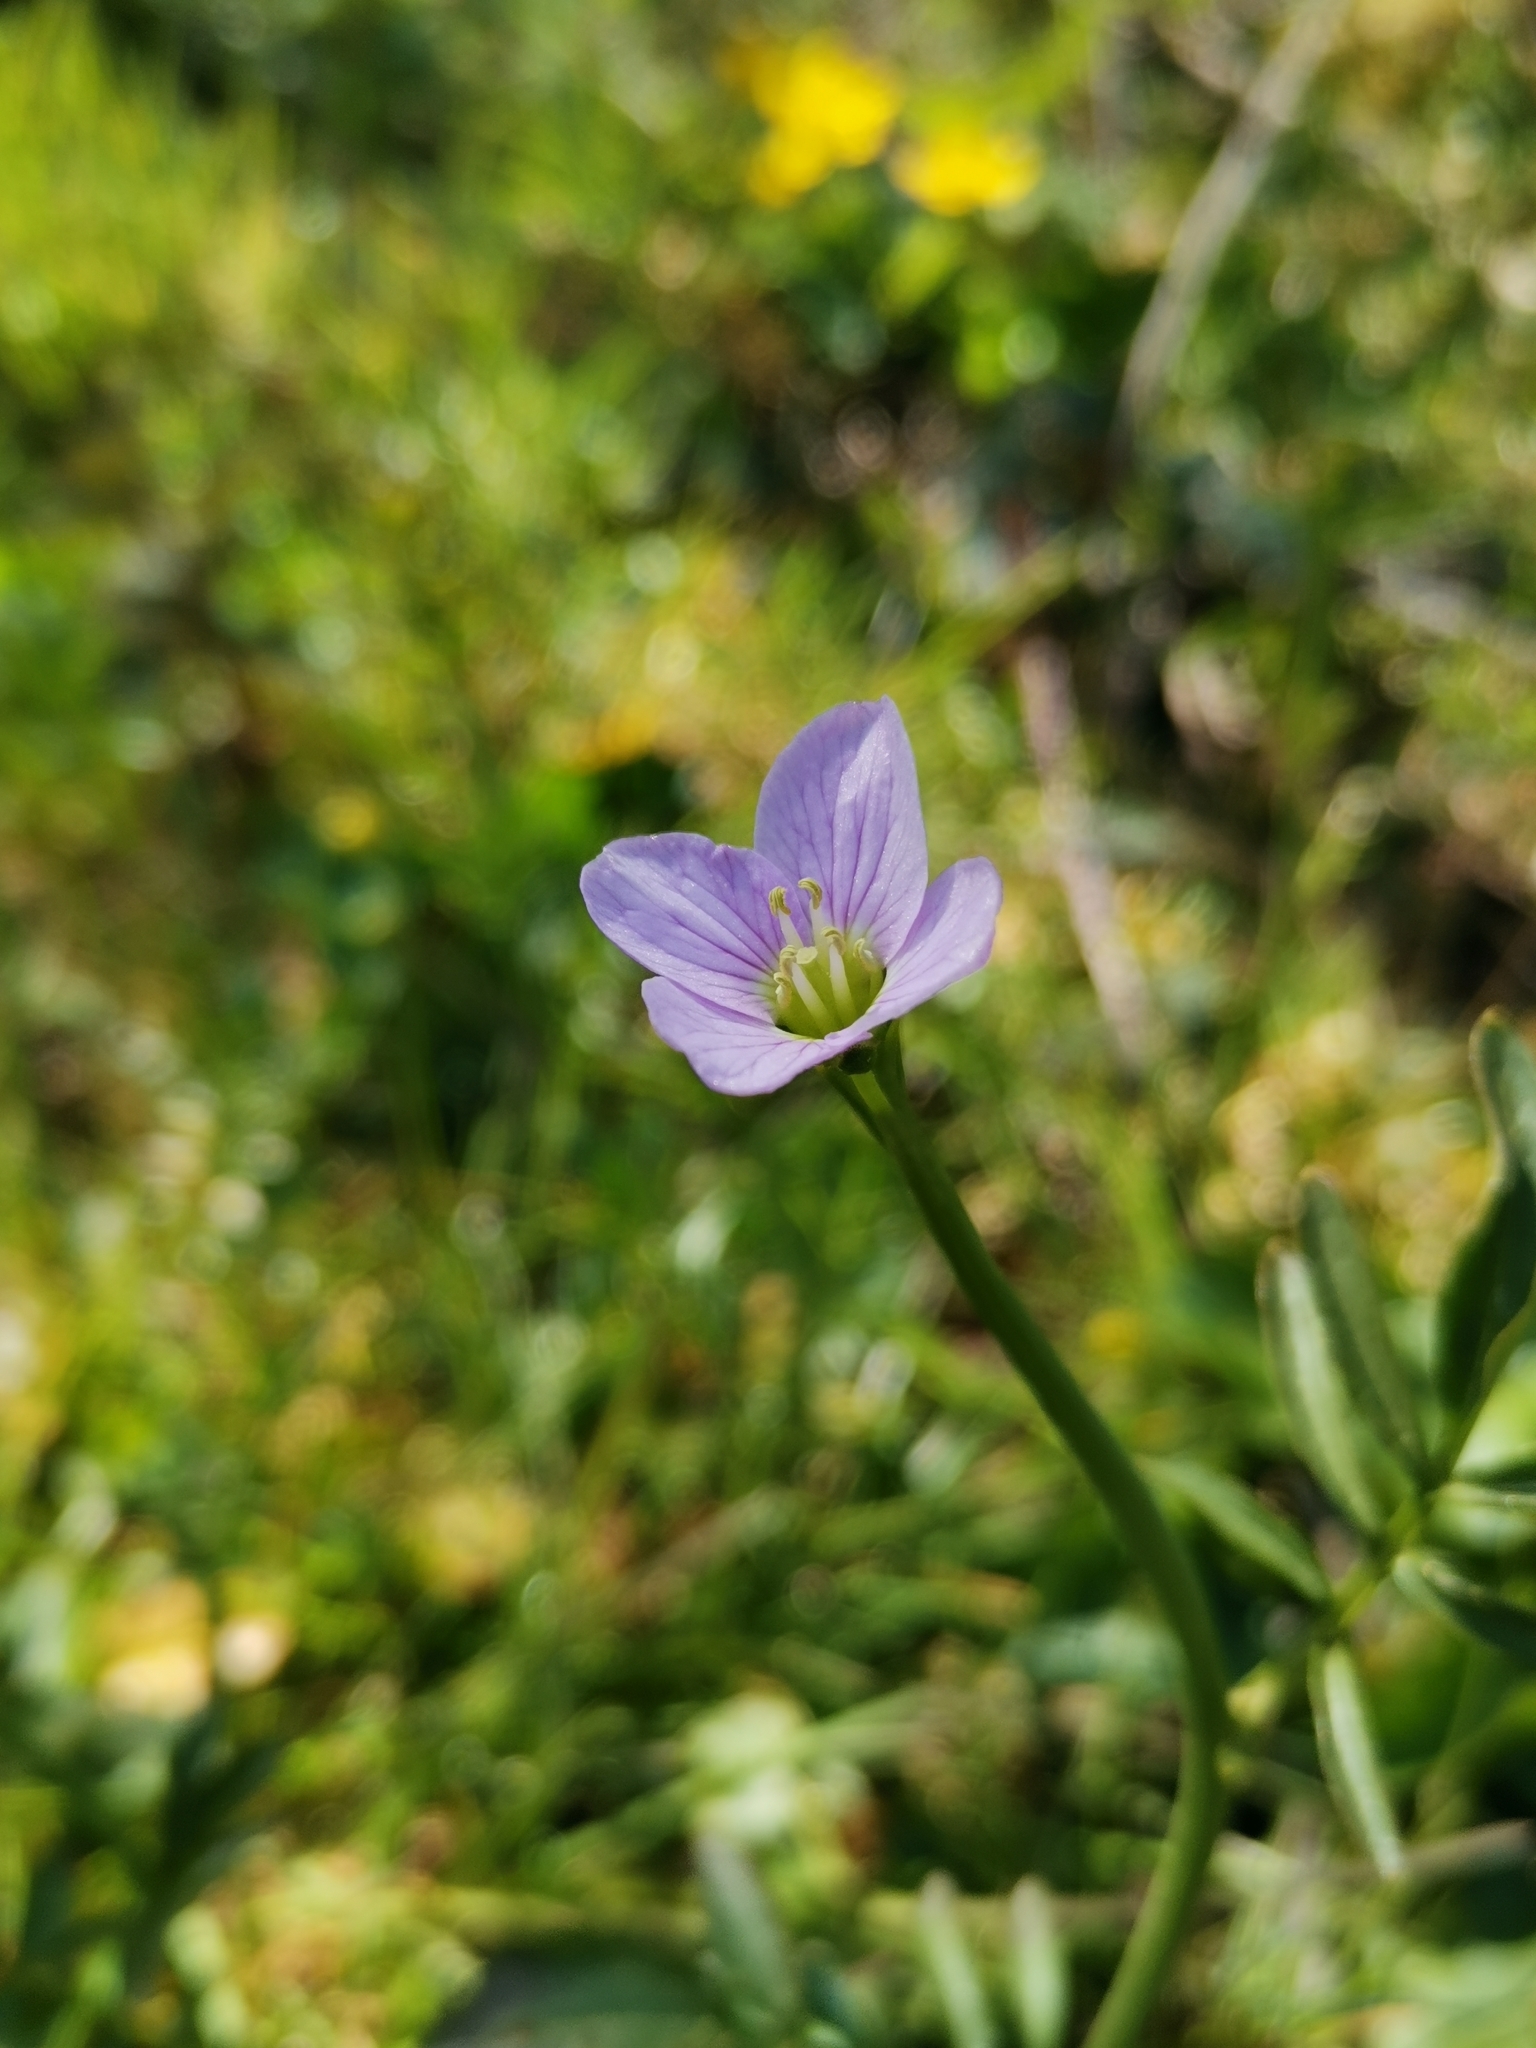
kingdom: Plantae
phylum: Tracheophyta
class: Magnoliopsida
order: Brassicales
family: Brassicaceae
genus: Cardamine
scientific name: Cardamine pratensis
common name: Cuckoo flower
